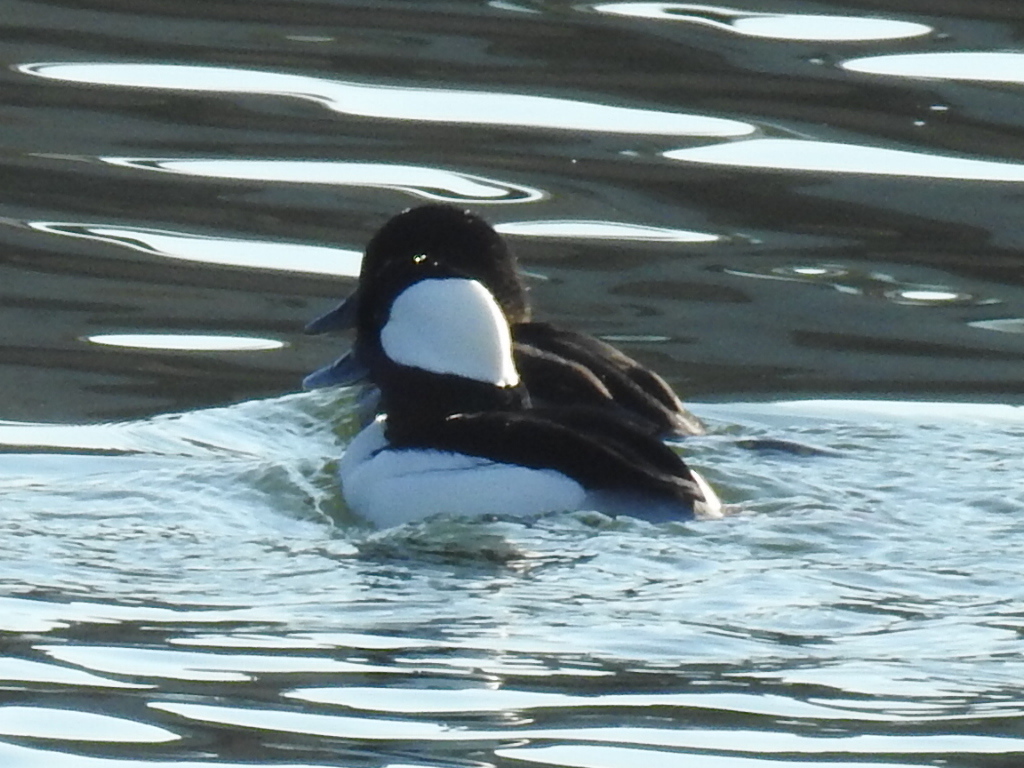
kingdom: Animalia
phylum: Chordata
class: Aves
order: Anseriformes
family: Anatidae
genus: Bucephala
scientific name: Bucephala albeola
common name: Bufflehead
